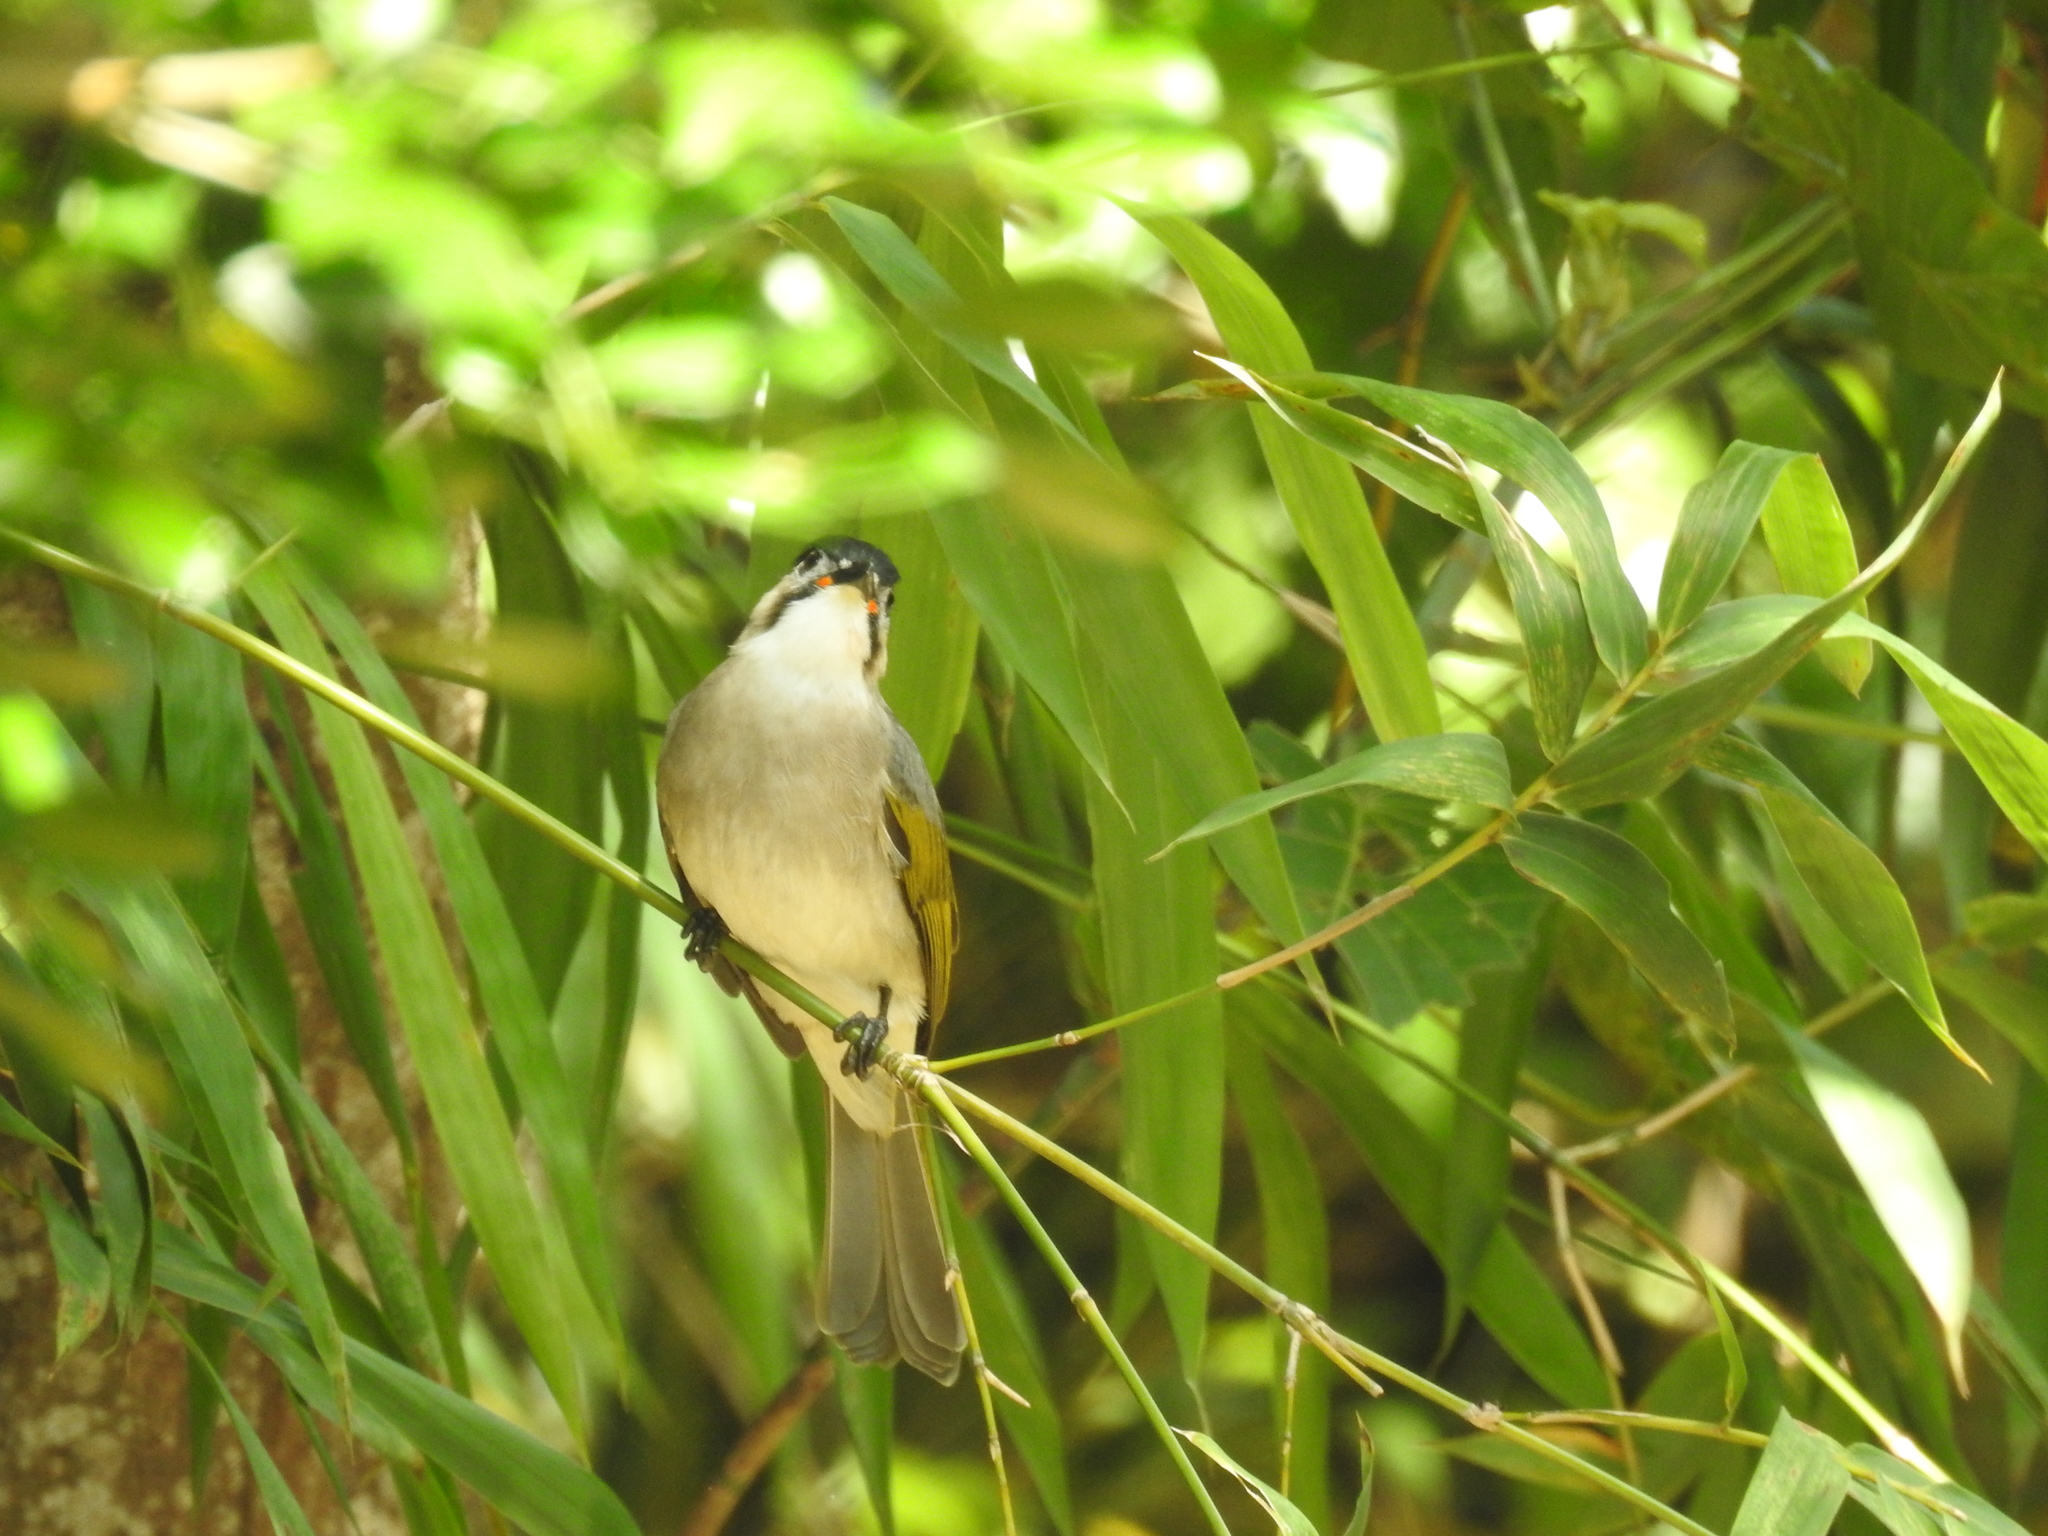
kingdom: Animalia
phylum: Chordata
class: Aves
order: Passeriformes
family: Pycnonotidae
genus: Pycnonotus
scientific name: Pycnonotus taivanus
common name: Styan's bulbul
